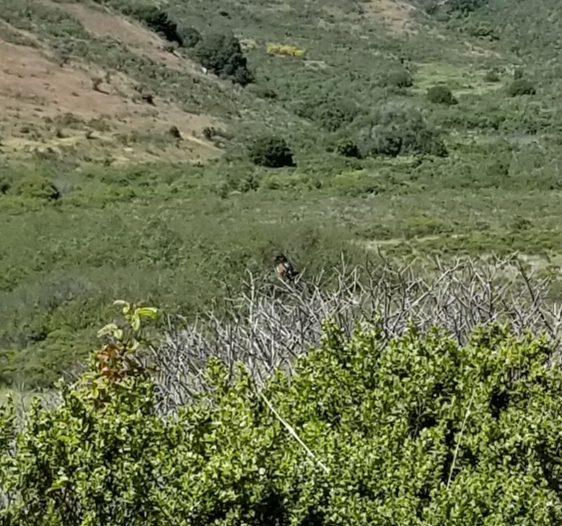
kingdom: Animalia
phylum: Chordata
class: Aves
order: Passeriformes
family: Passerellidae
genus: Pipilo
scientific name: Pipilo maculatus
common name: Spotted towhee
